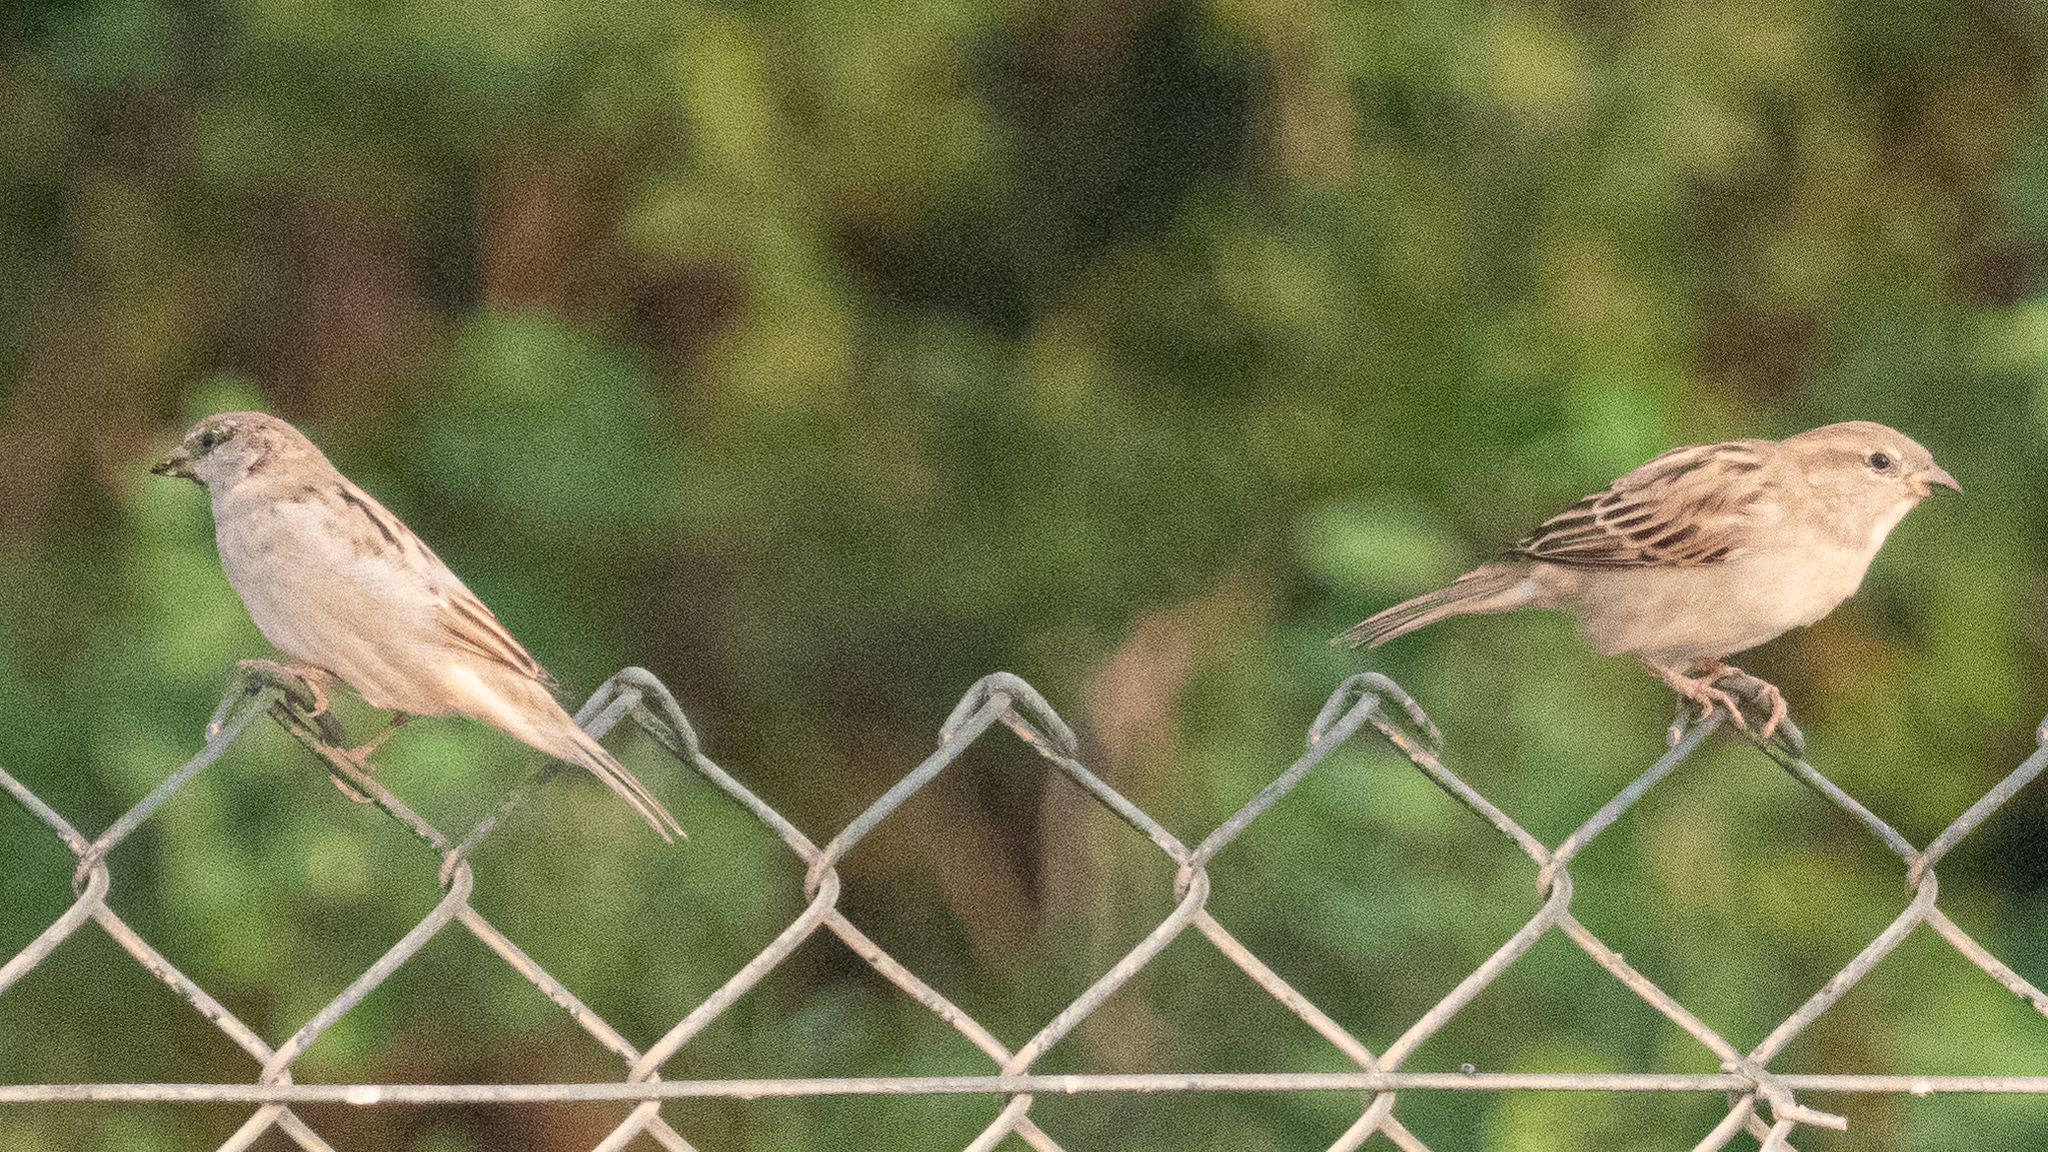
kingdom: Animalia
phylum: Chordata
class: Aves
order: Passeriformes
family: Passeridae
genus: Passer
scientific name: Passer domesticus
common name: House sparrow
